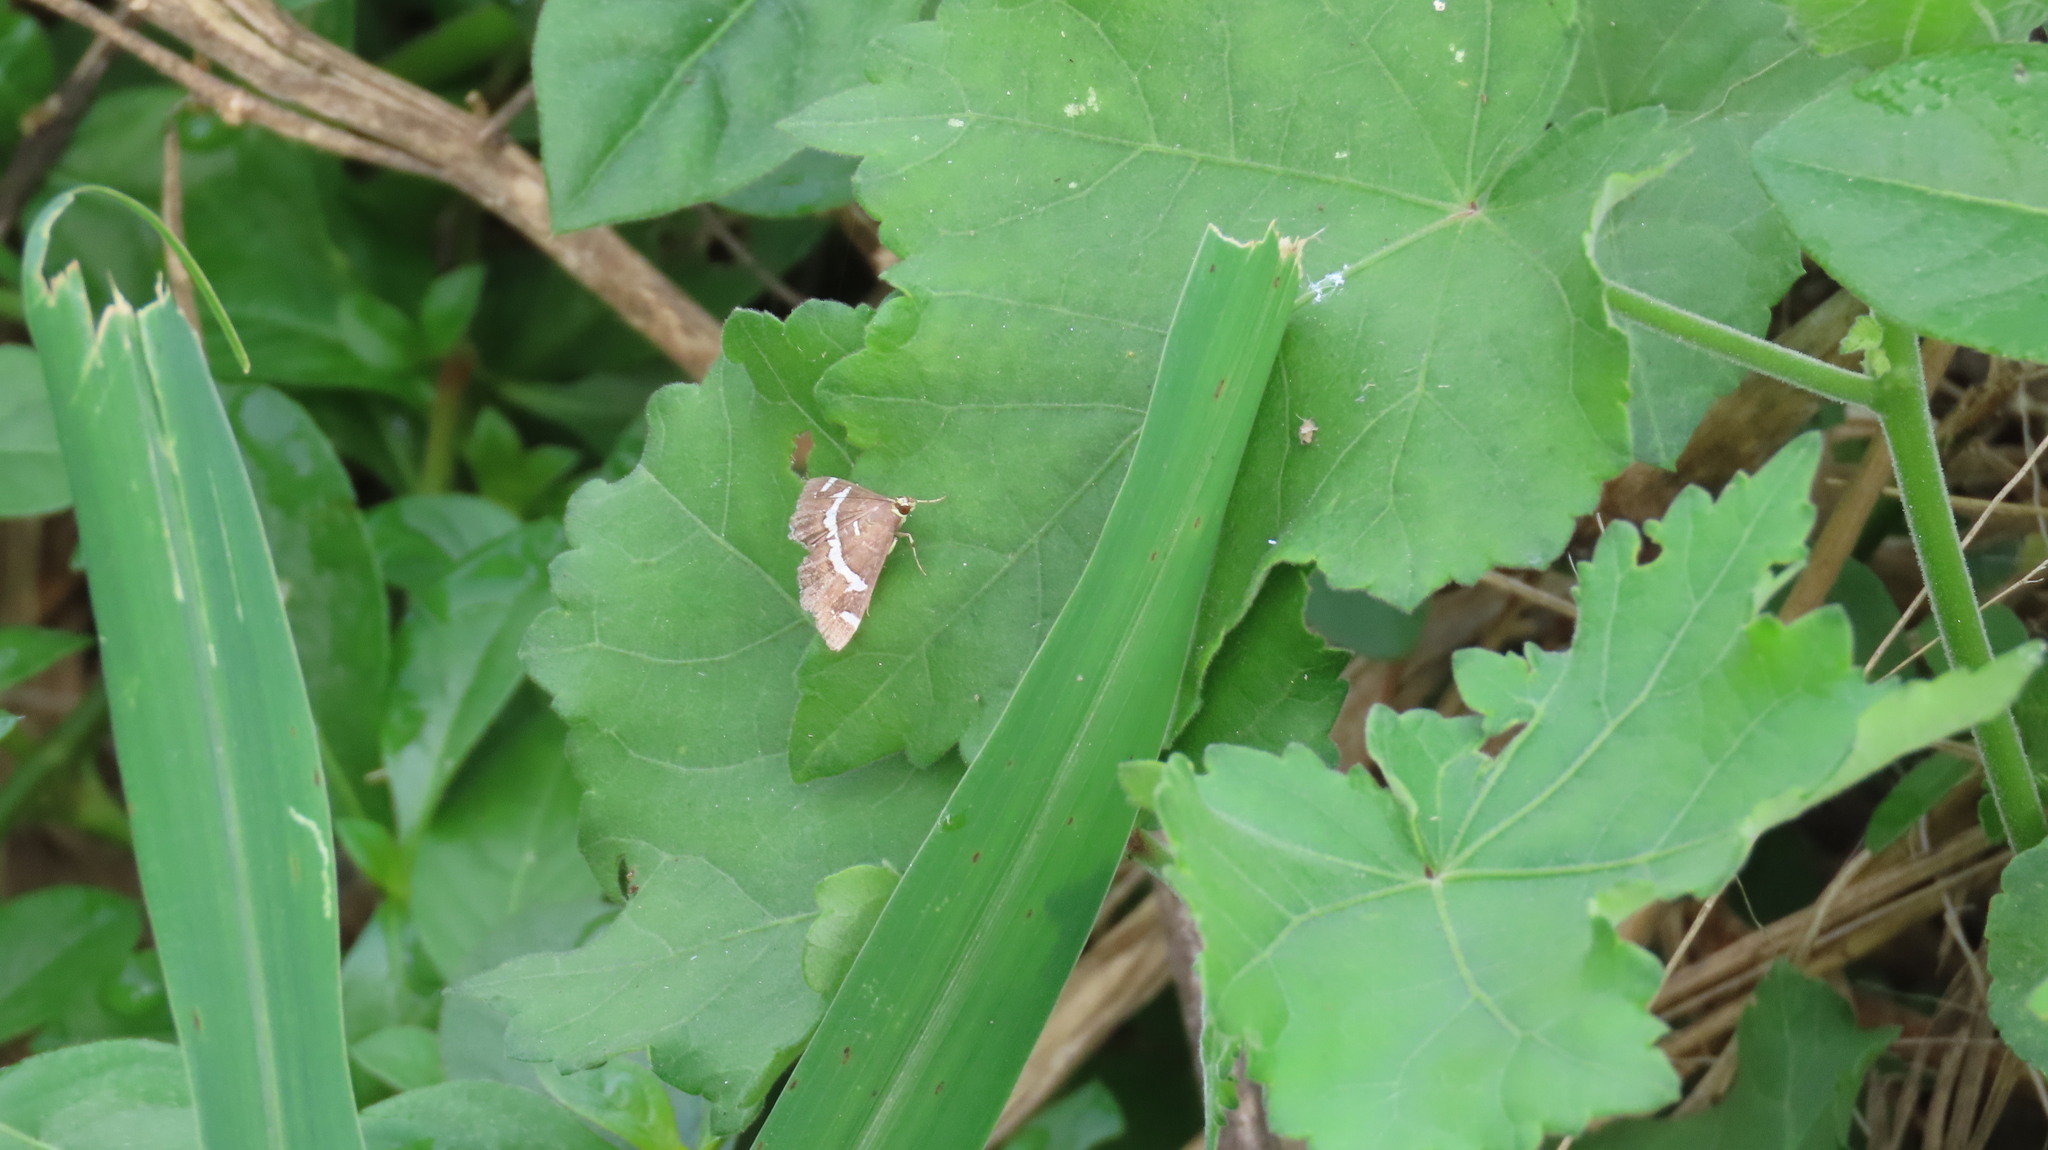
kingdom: Animalia
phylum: Arthropoda
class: Insecta
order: Lepidoptera
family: Crambidae
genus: Spoladea
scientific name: Spoladea recurvalis
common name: Beet webworm moth
